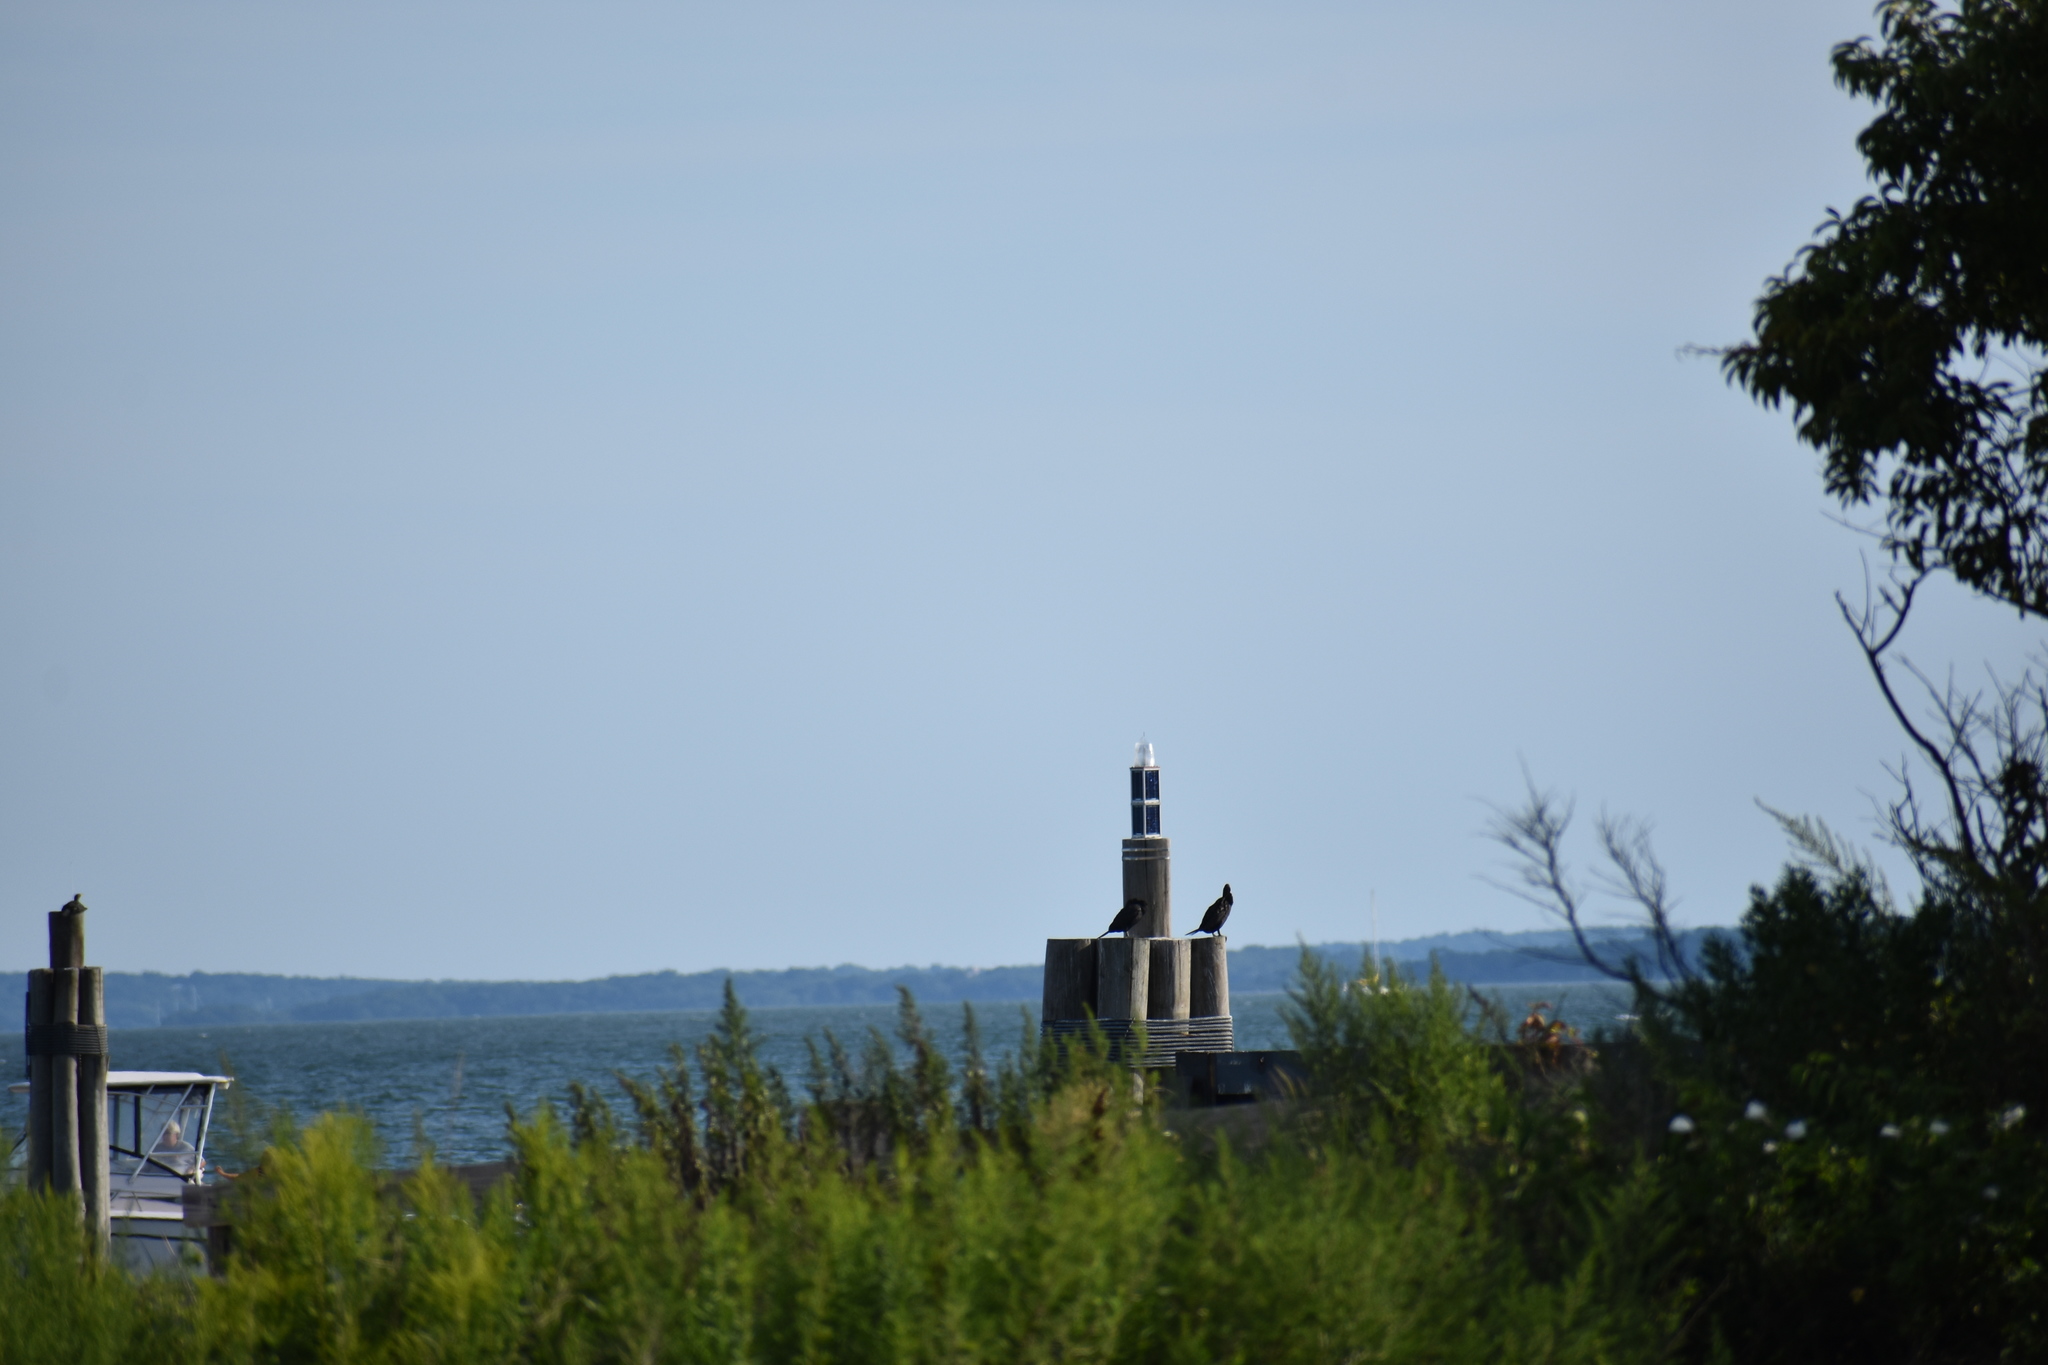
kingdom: Animalia
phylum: Chordata
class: Aves
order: Suliformes
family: Phalacrocoracidae
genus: Phalacrocorax
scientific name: Phalacrocorax auritus
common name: Double-crested cormorant
